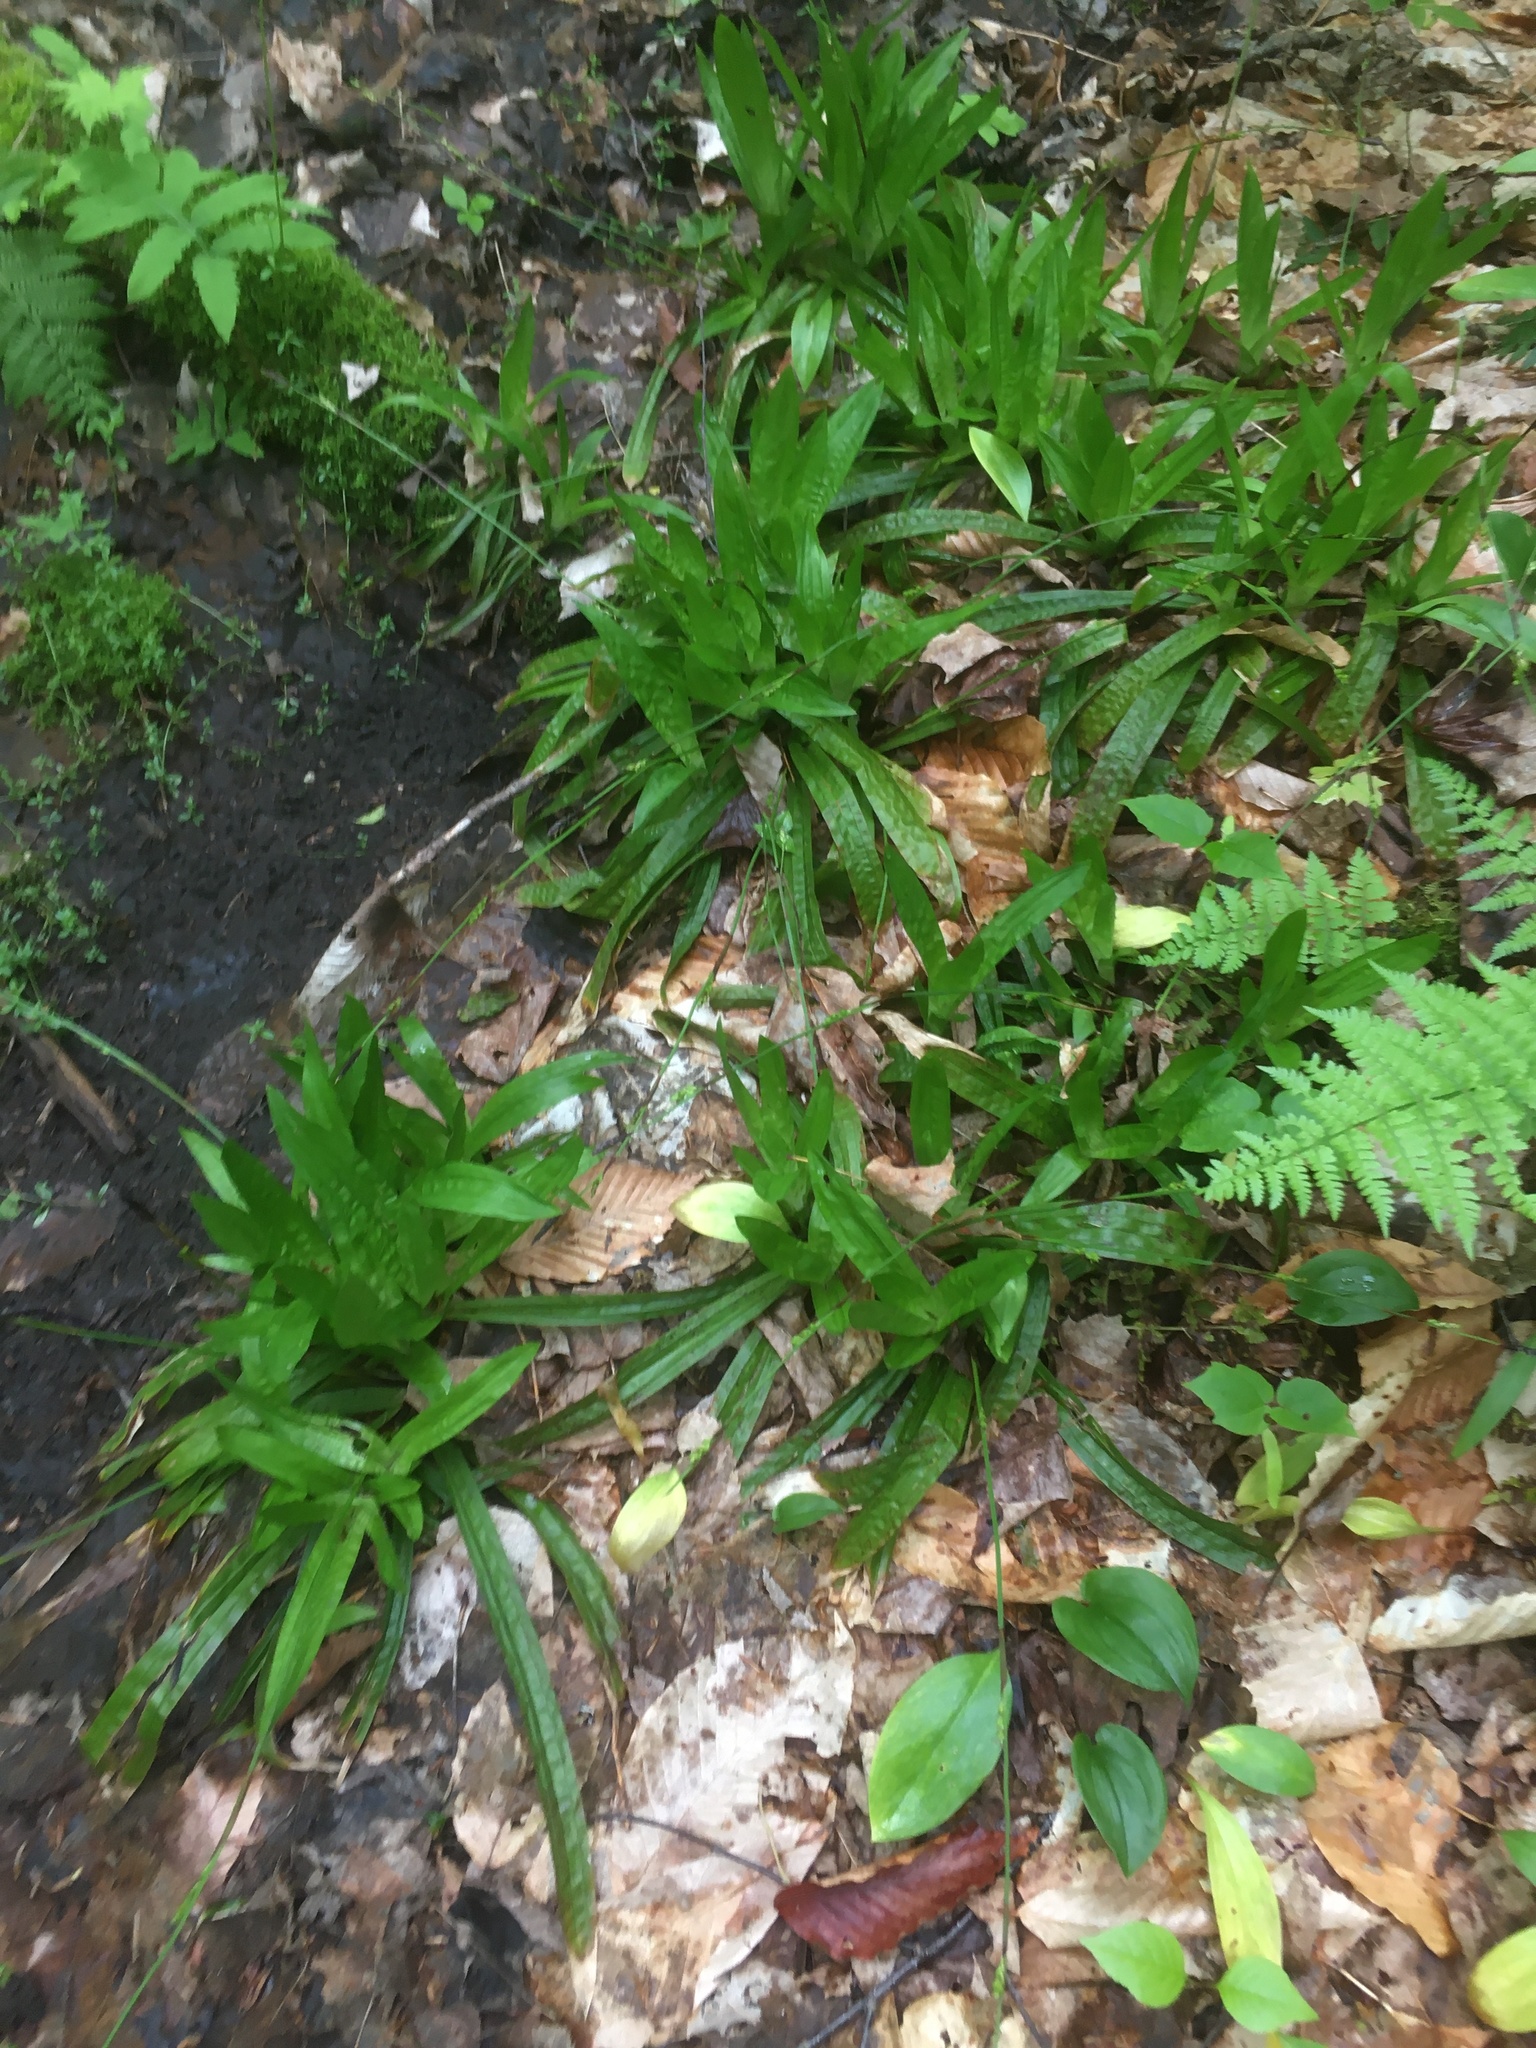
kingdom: Plantae
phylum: Tracheophyta
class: Liliopsida
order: Poales
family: Cyperaceae
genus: Carex
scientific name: Carex plantaginea
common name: Plantain-leaved sedge
